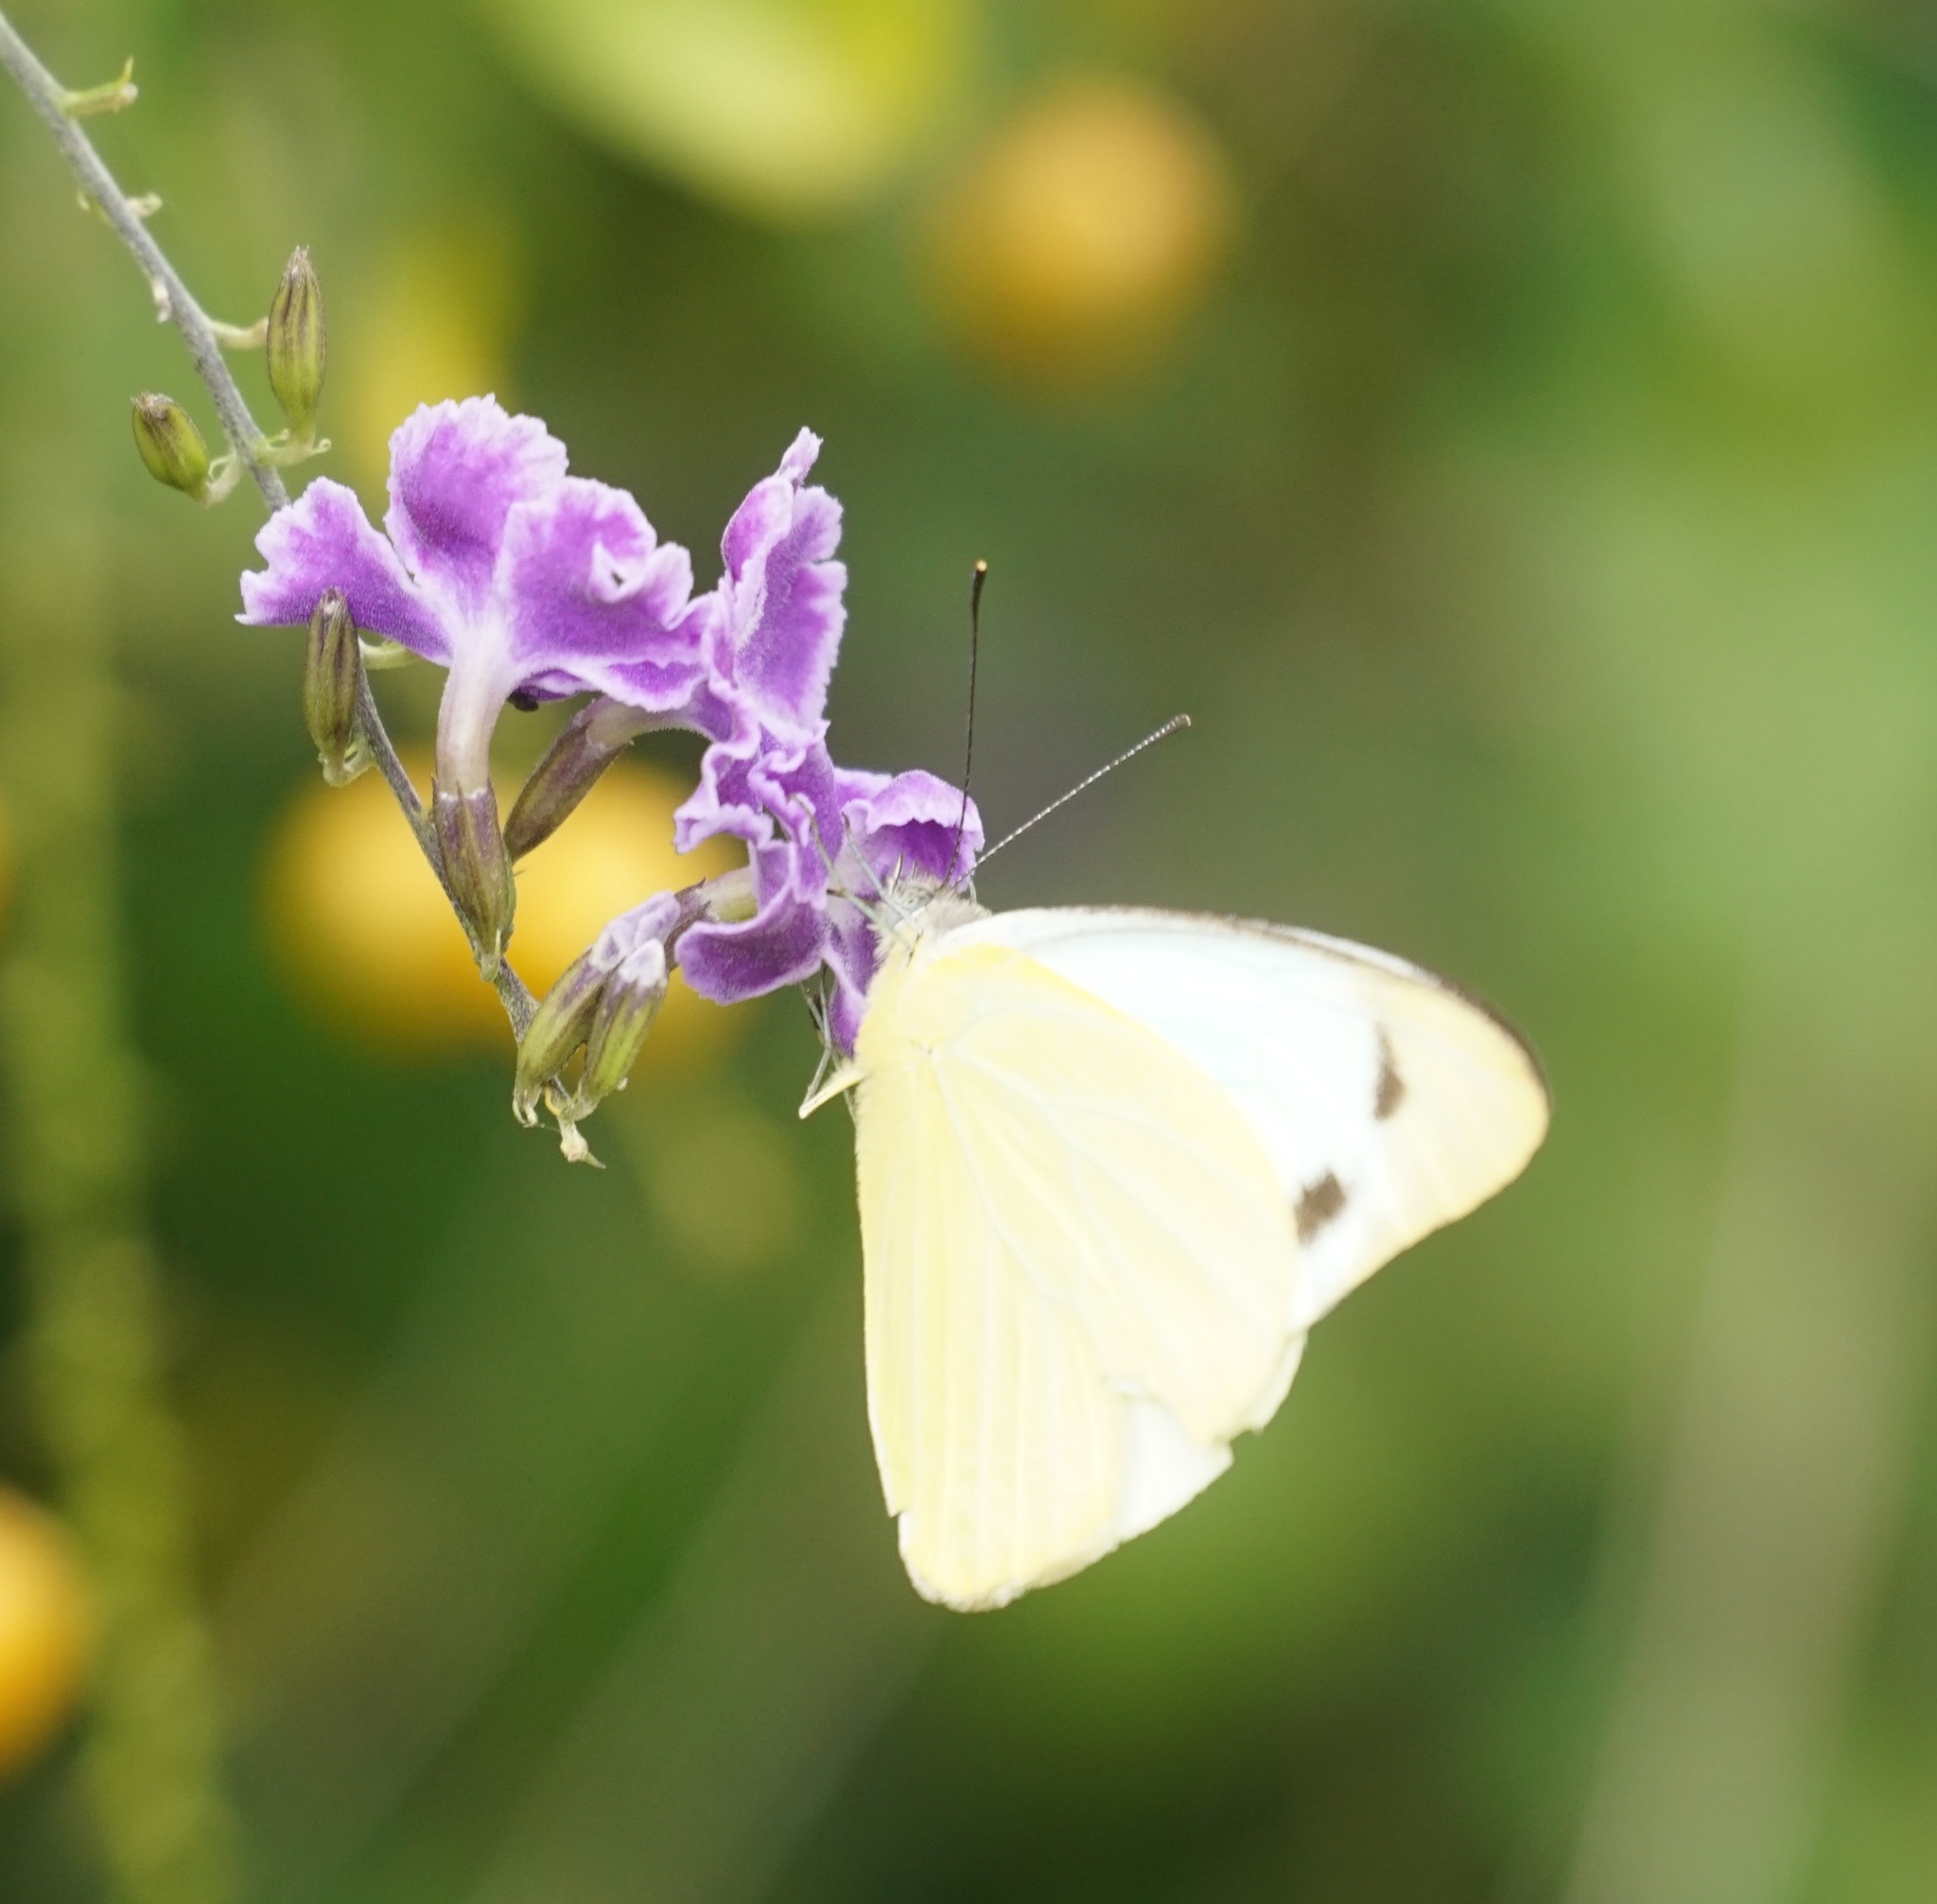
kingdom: Animalia
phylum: Arthropoda
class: Insecta
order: Lepidoptera
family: Pieridae
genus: Appias
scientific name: Appias paulina
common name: Ceylon lesser albatross
